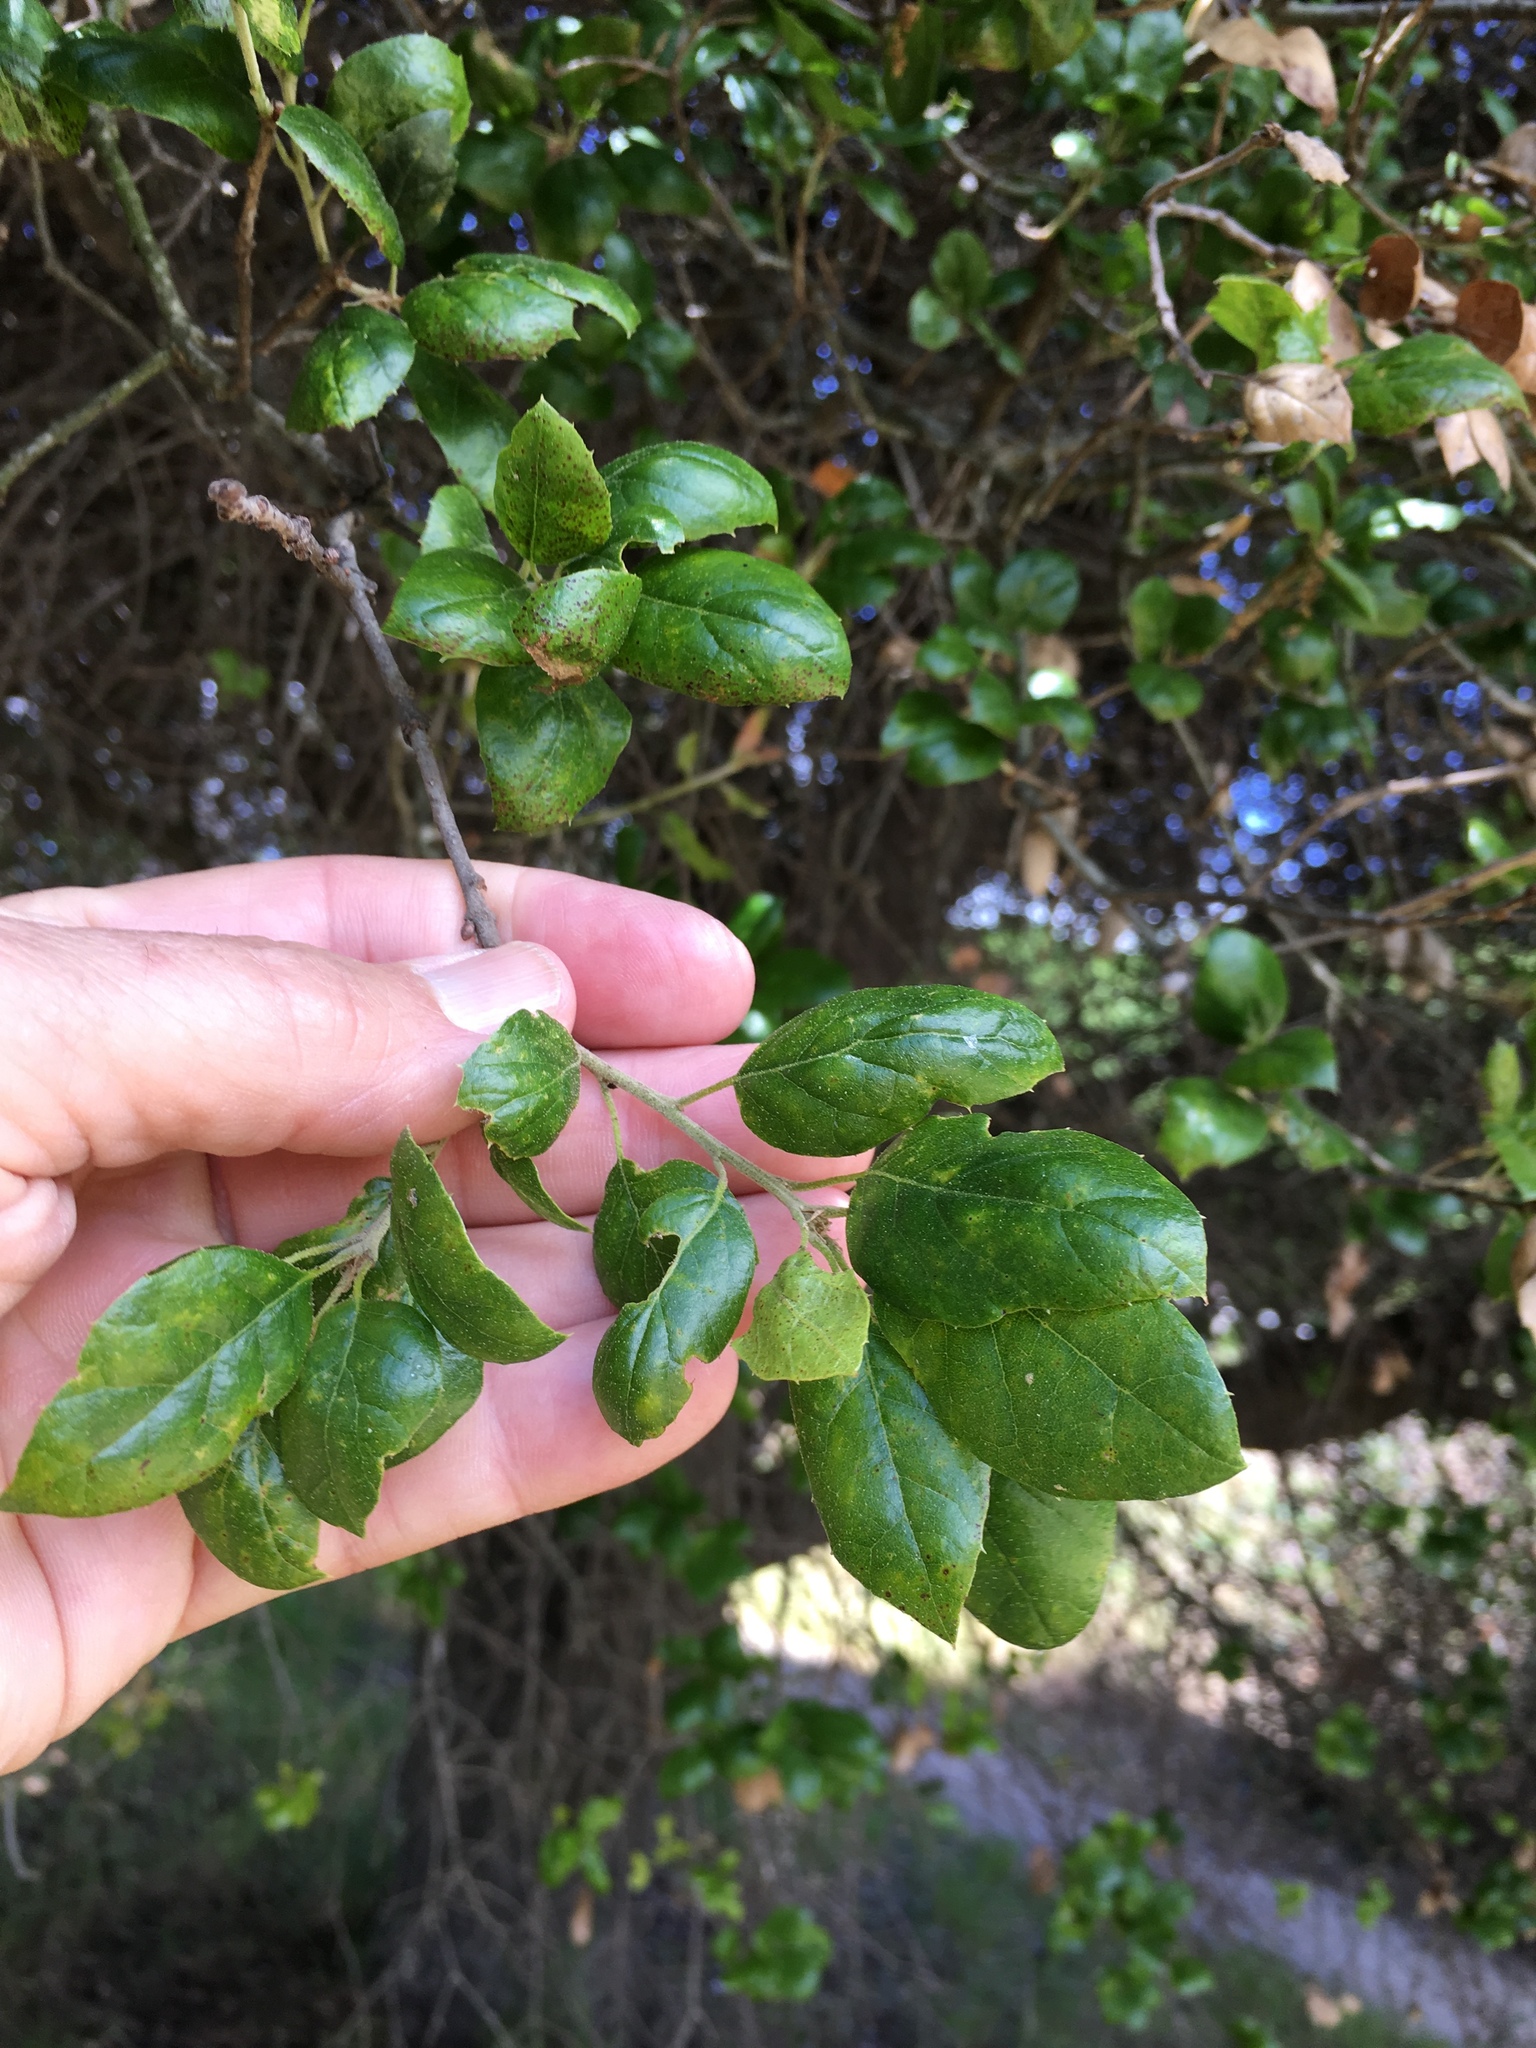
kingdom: Plantae
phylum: Tracheophyta
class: Magnoliopsida
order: Fagales
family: Fagaceae
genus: Quercus
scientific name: Quercus agrifolia
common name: California live oak
